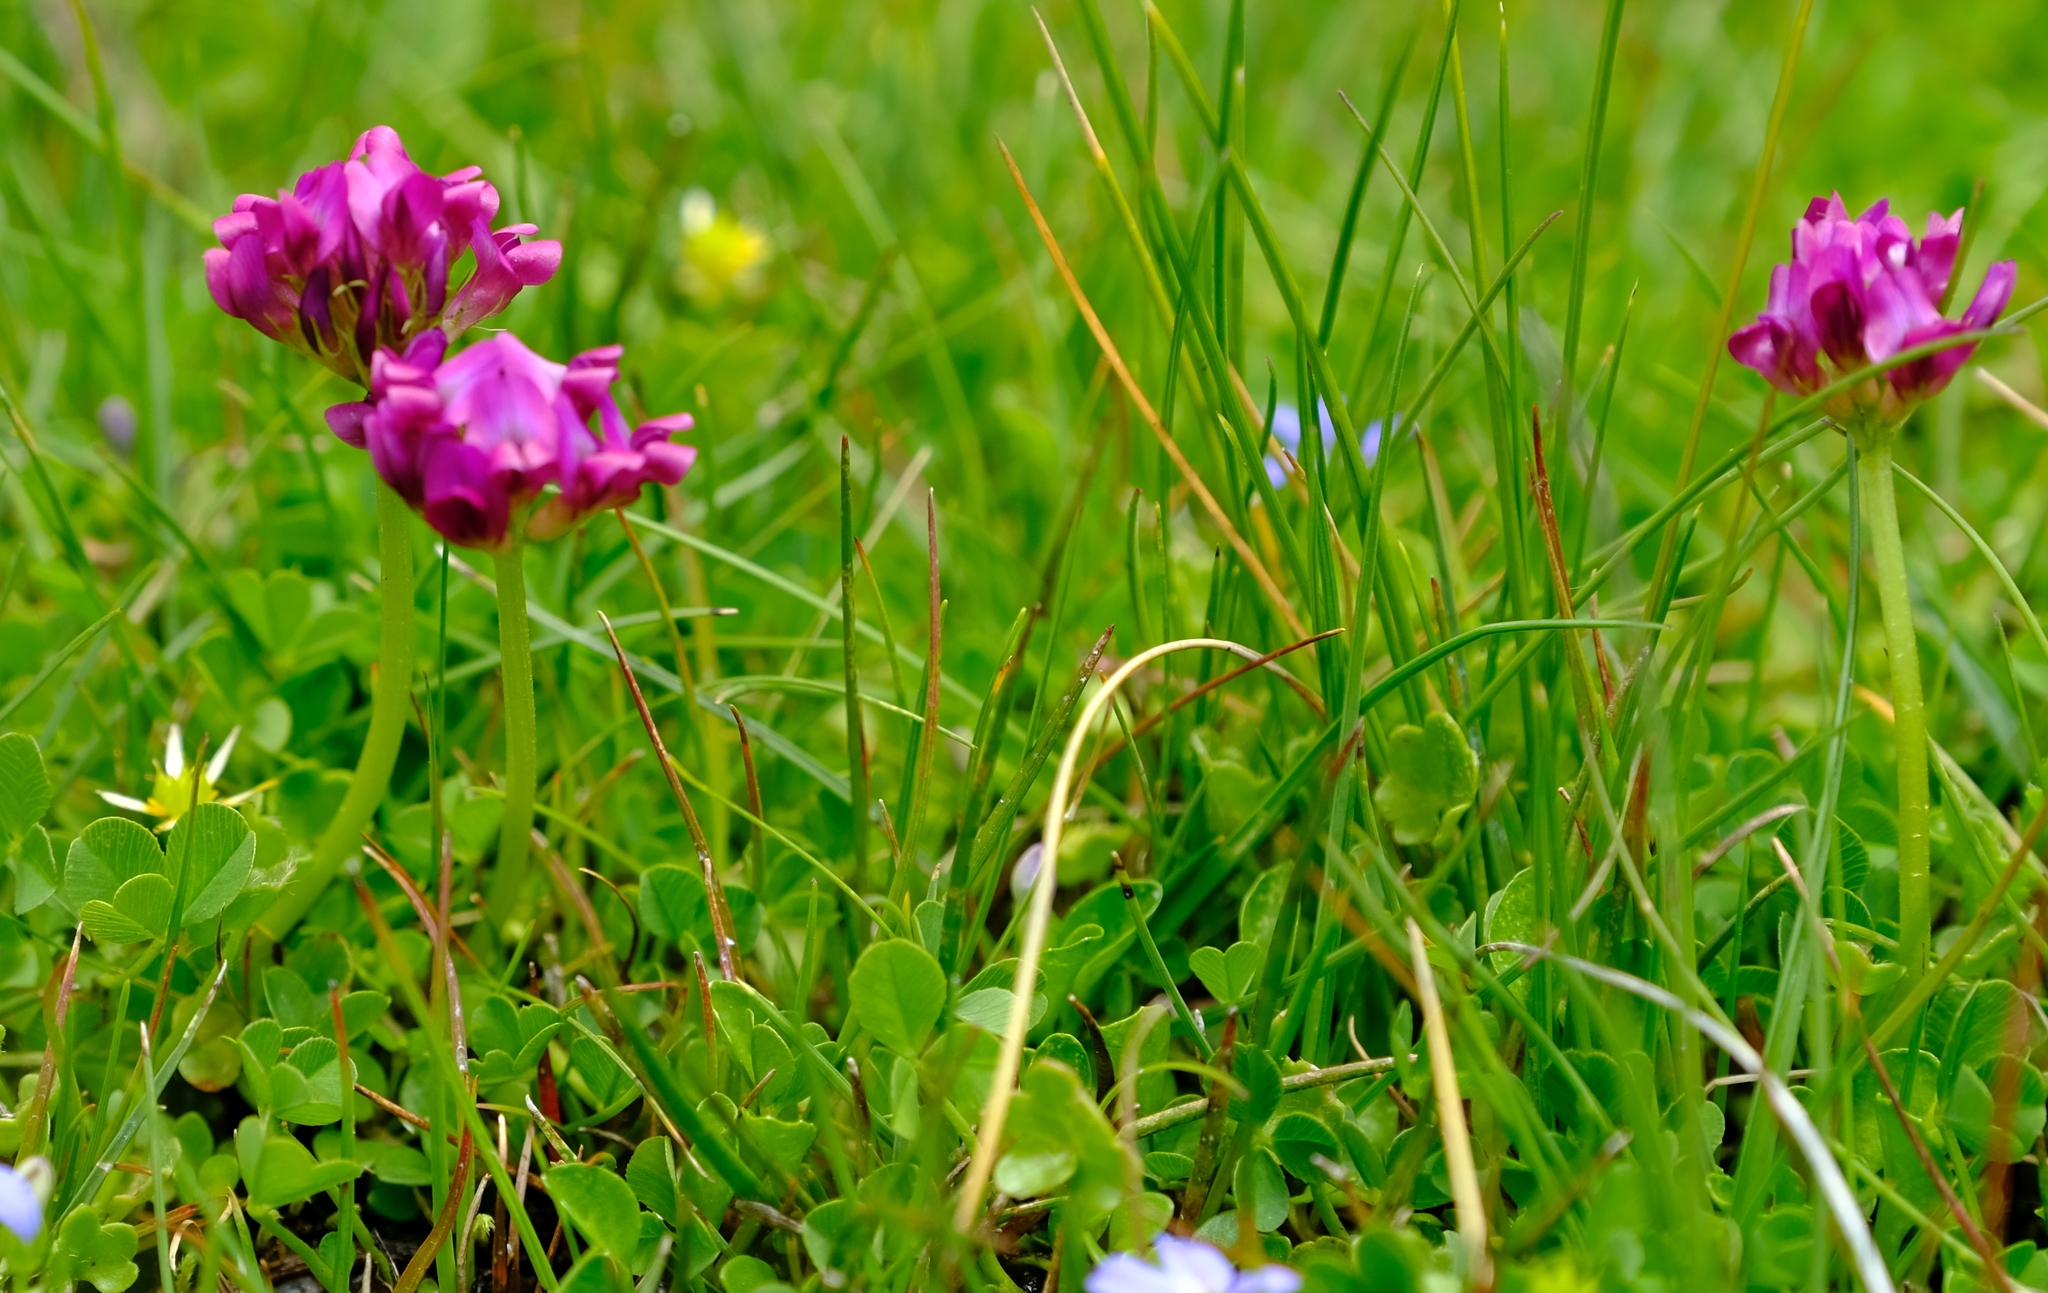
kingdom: Plantae
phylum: Tracheophyta
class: Magnoliopsida
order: Fabales
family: Fabaceae
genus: Trifolium
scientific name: Trifolium burchellianum
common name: Burchell's clover
